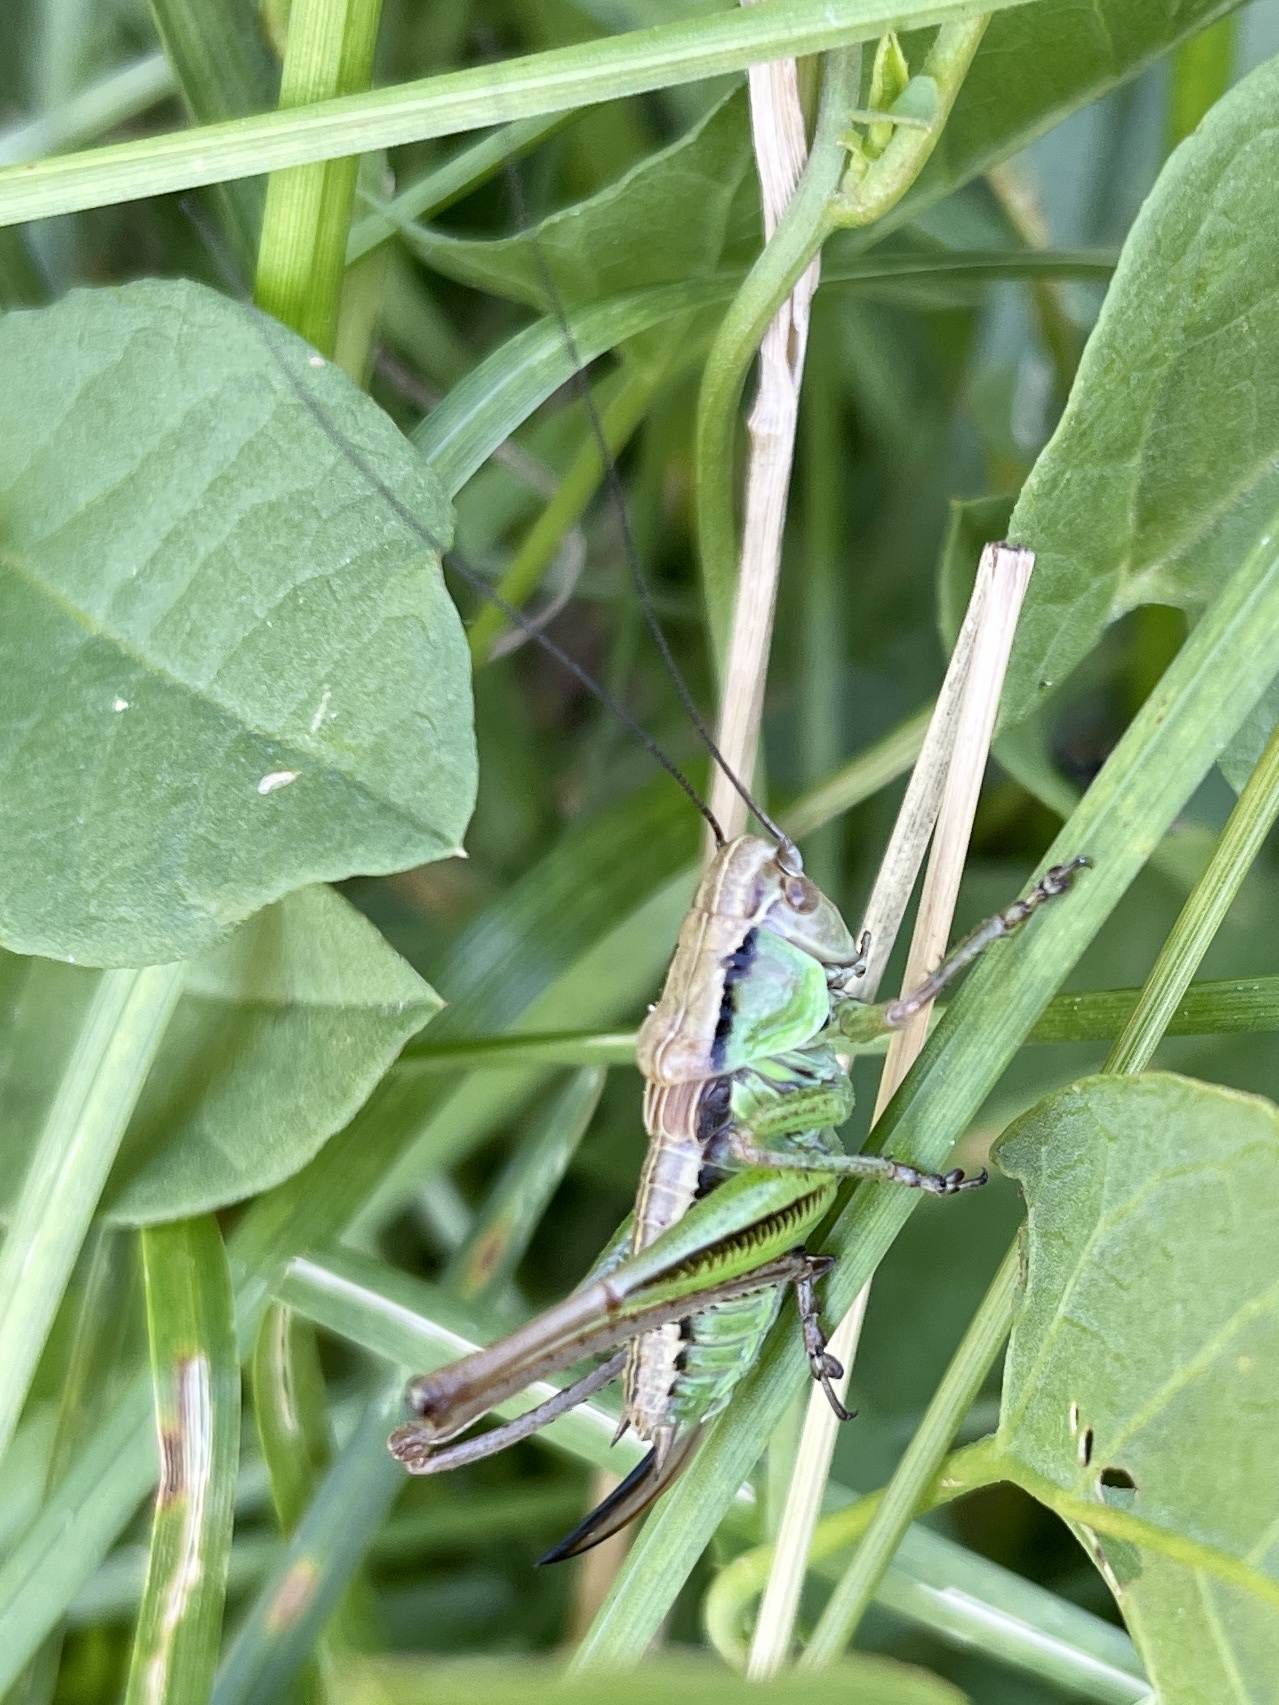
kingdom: Animalia
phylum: Arthropoda
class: Insecta
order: Orthoptera
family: Tettigoniidae
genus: Roeseliana
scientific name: Roeseliana roeselii
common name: Roesel's bush cricket
